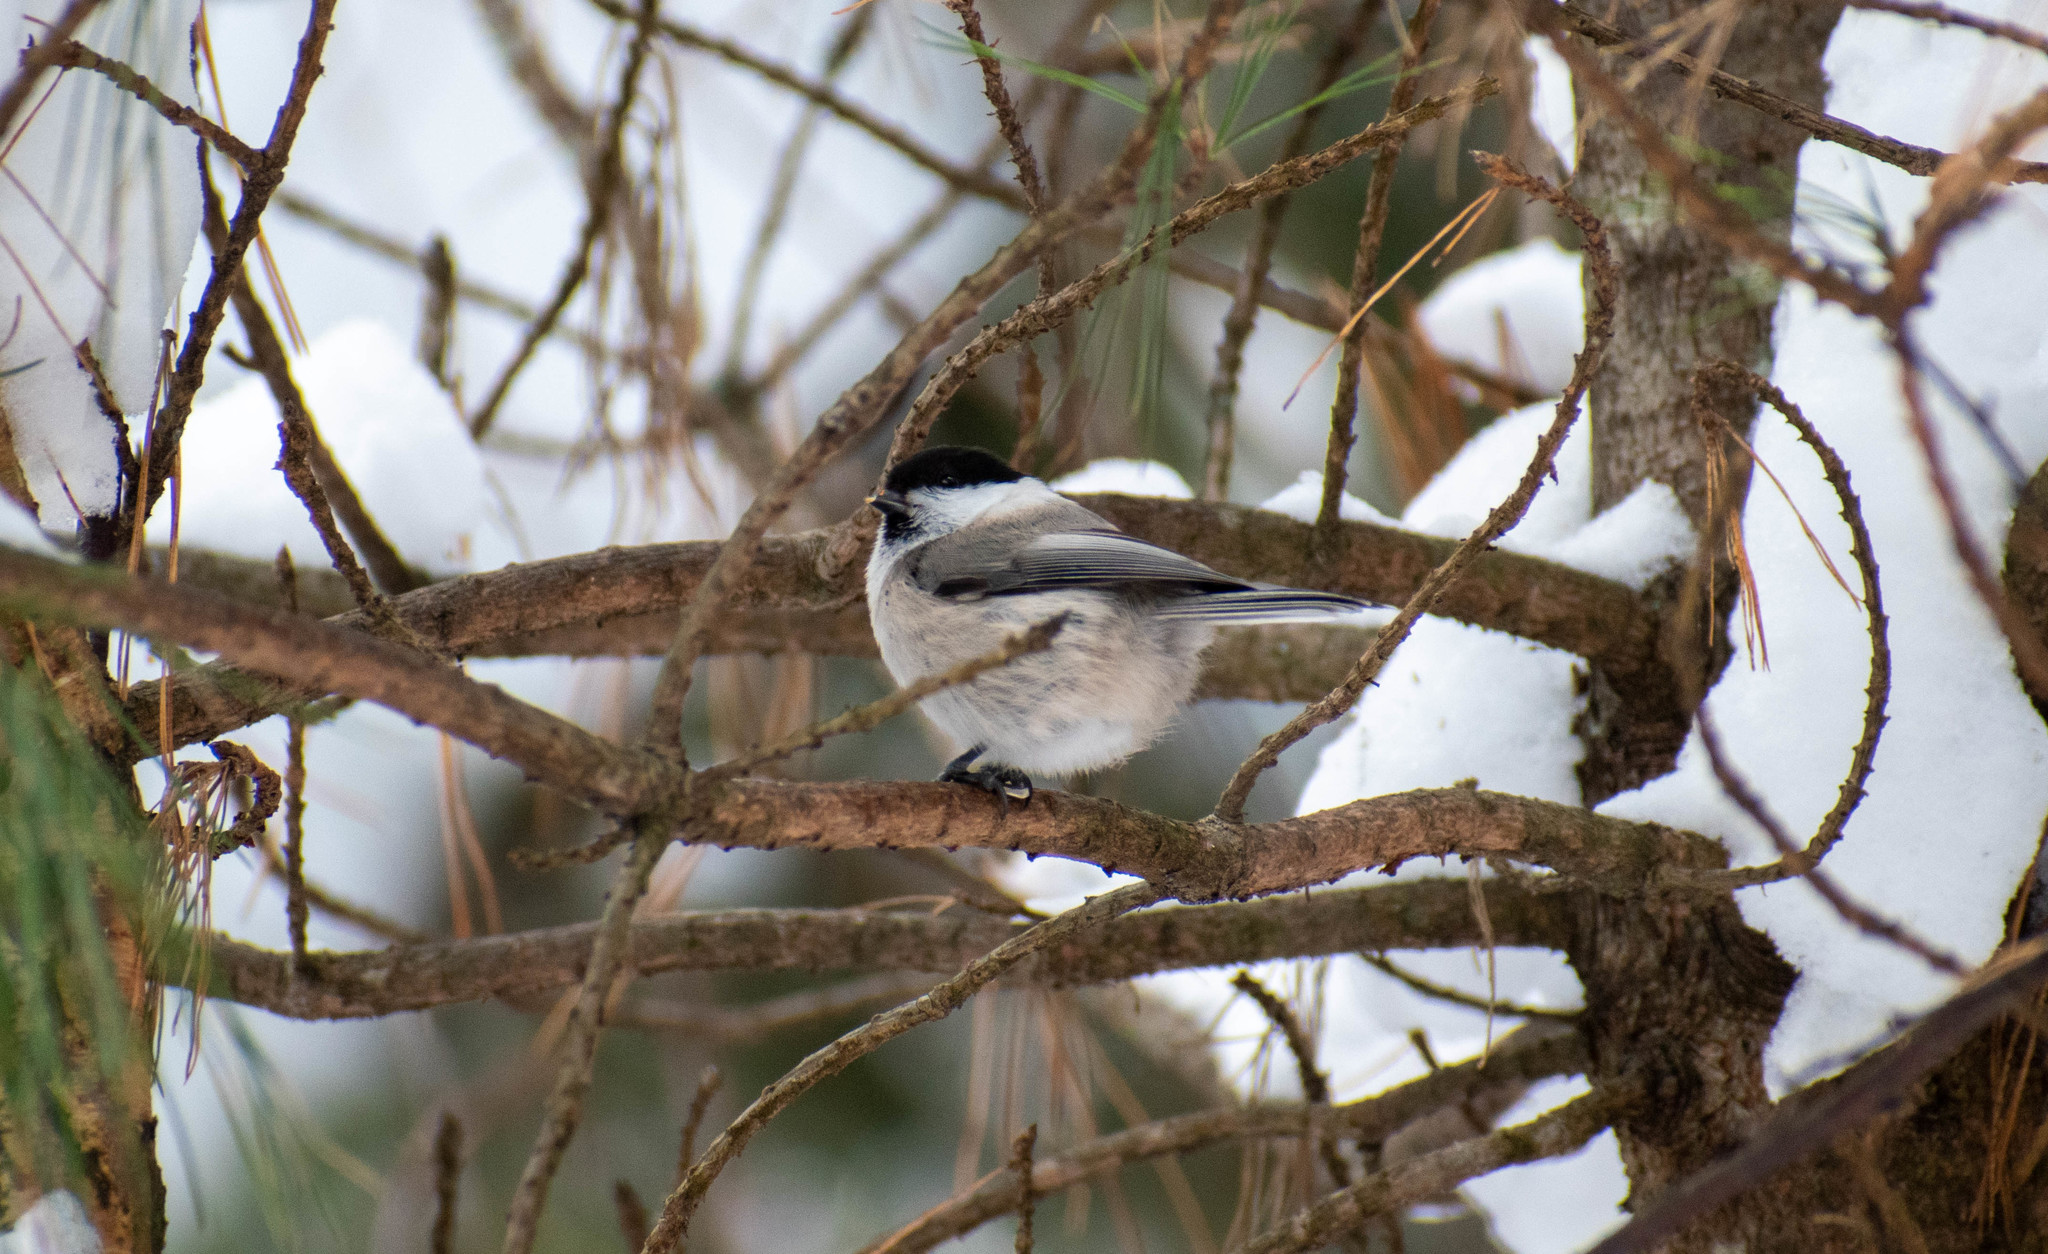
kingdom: Animalia
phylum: Chordata
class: Aves
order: Passeriformes
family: Paridae
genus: Poecile
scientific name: Poecile montanus
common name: Willow tit
